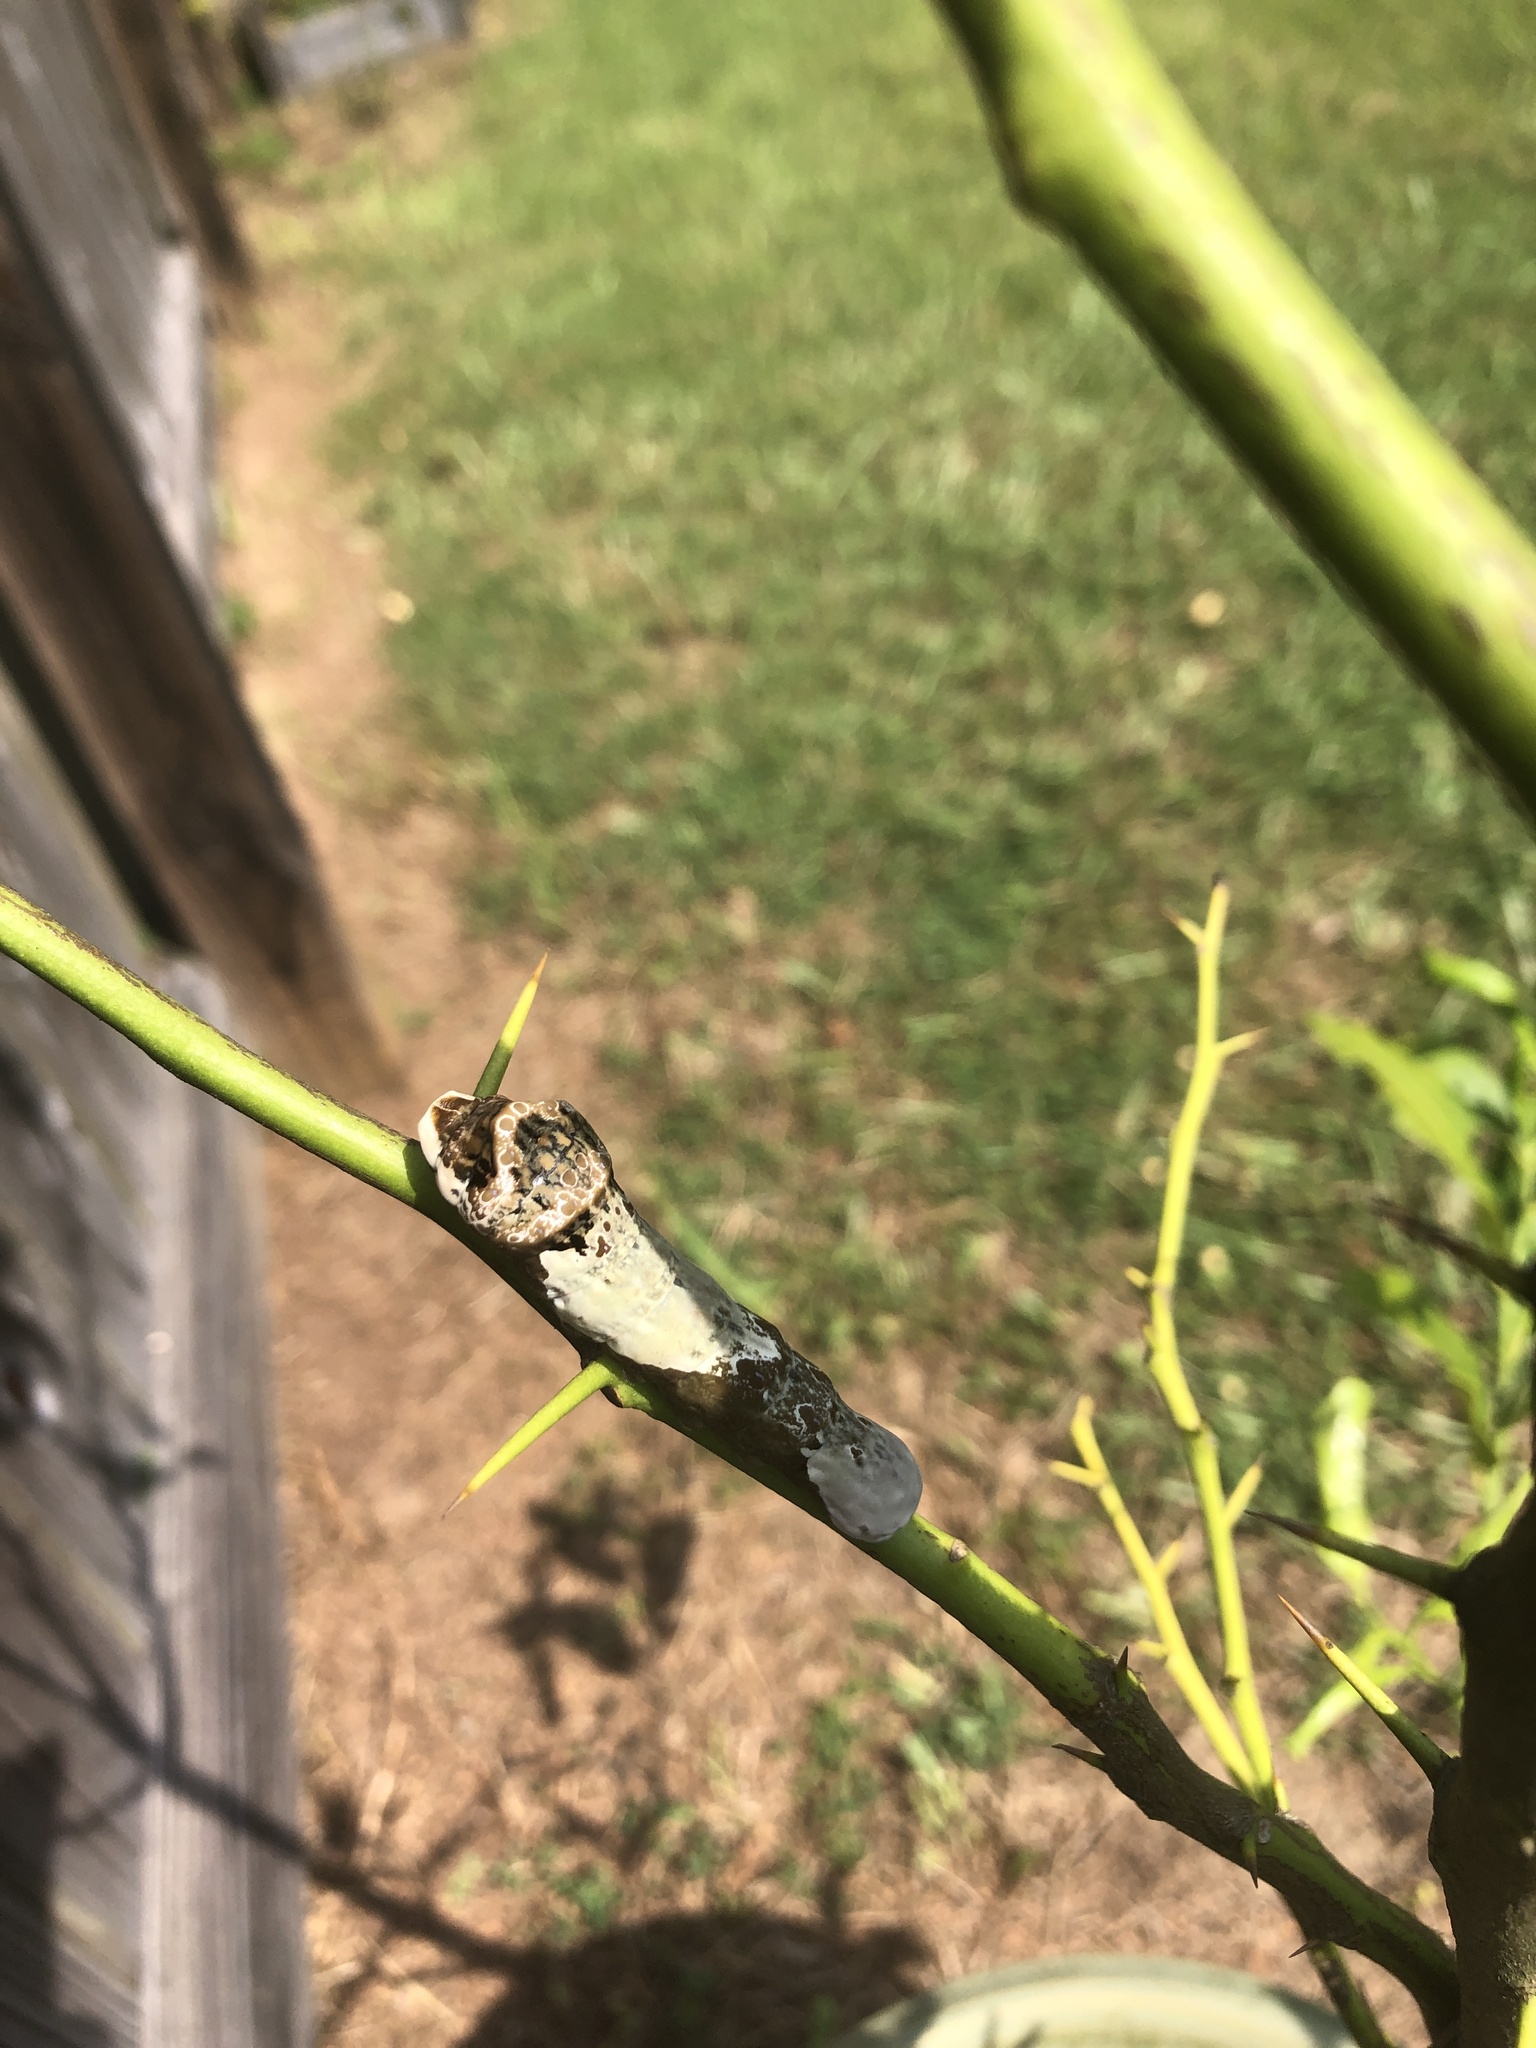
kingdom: Animalia
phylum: Arthropoda
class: Insecta
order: Lepidoptera
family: Papilionidae
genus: Papilio
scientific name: Papilio cresphontes
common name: Giant swallowtail
